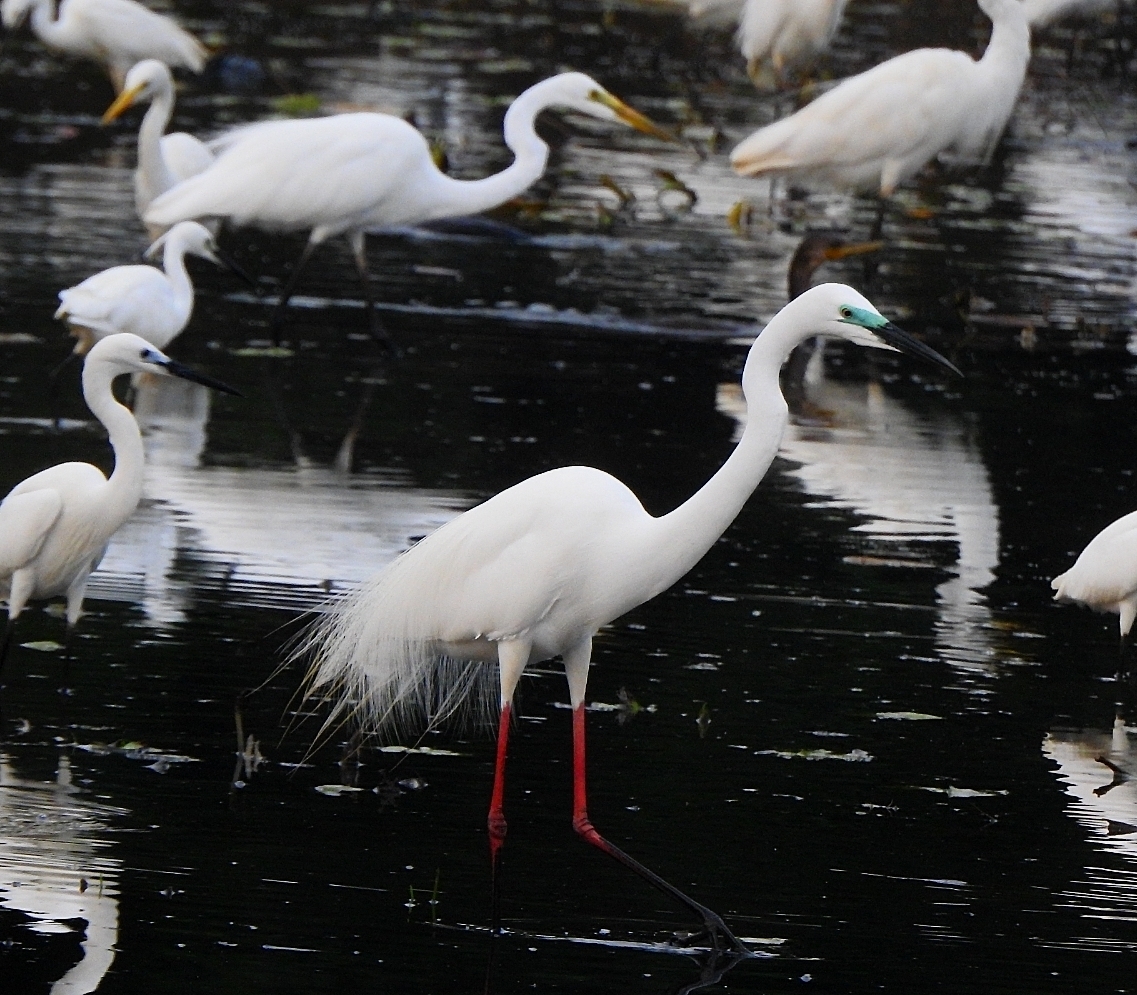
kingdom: Animalia
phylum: Chordata
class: Aves
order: Pelecaniformes
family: Ardeidae
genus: Ardea
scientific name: Ardea alba
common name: Great egret
